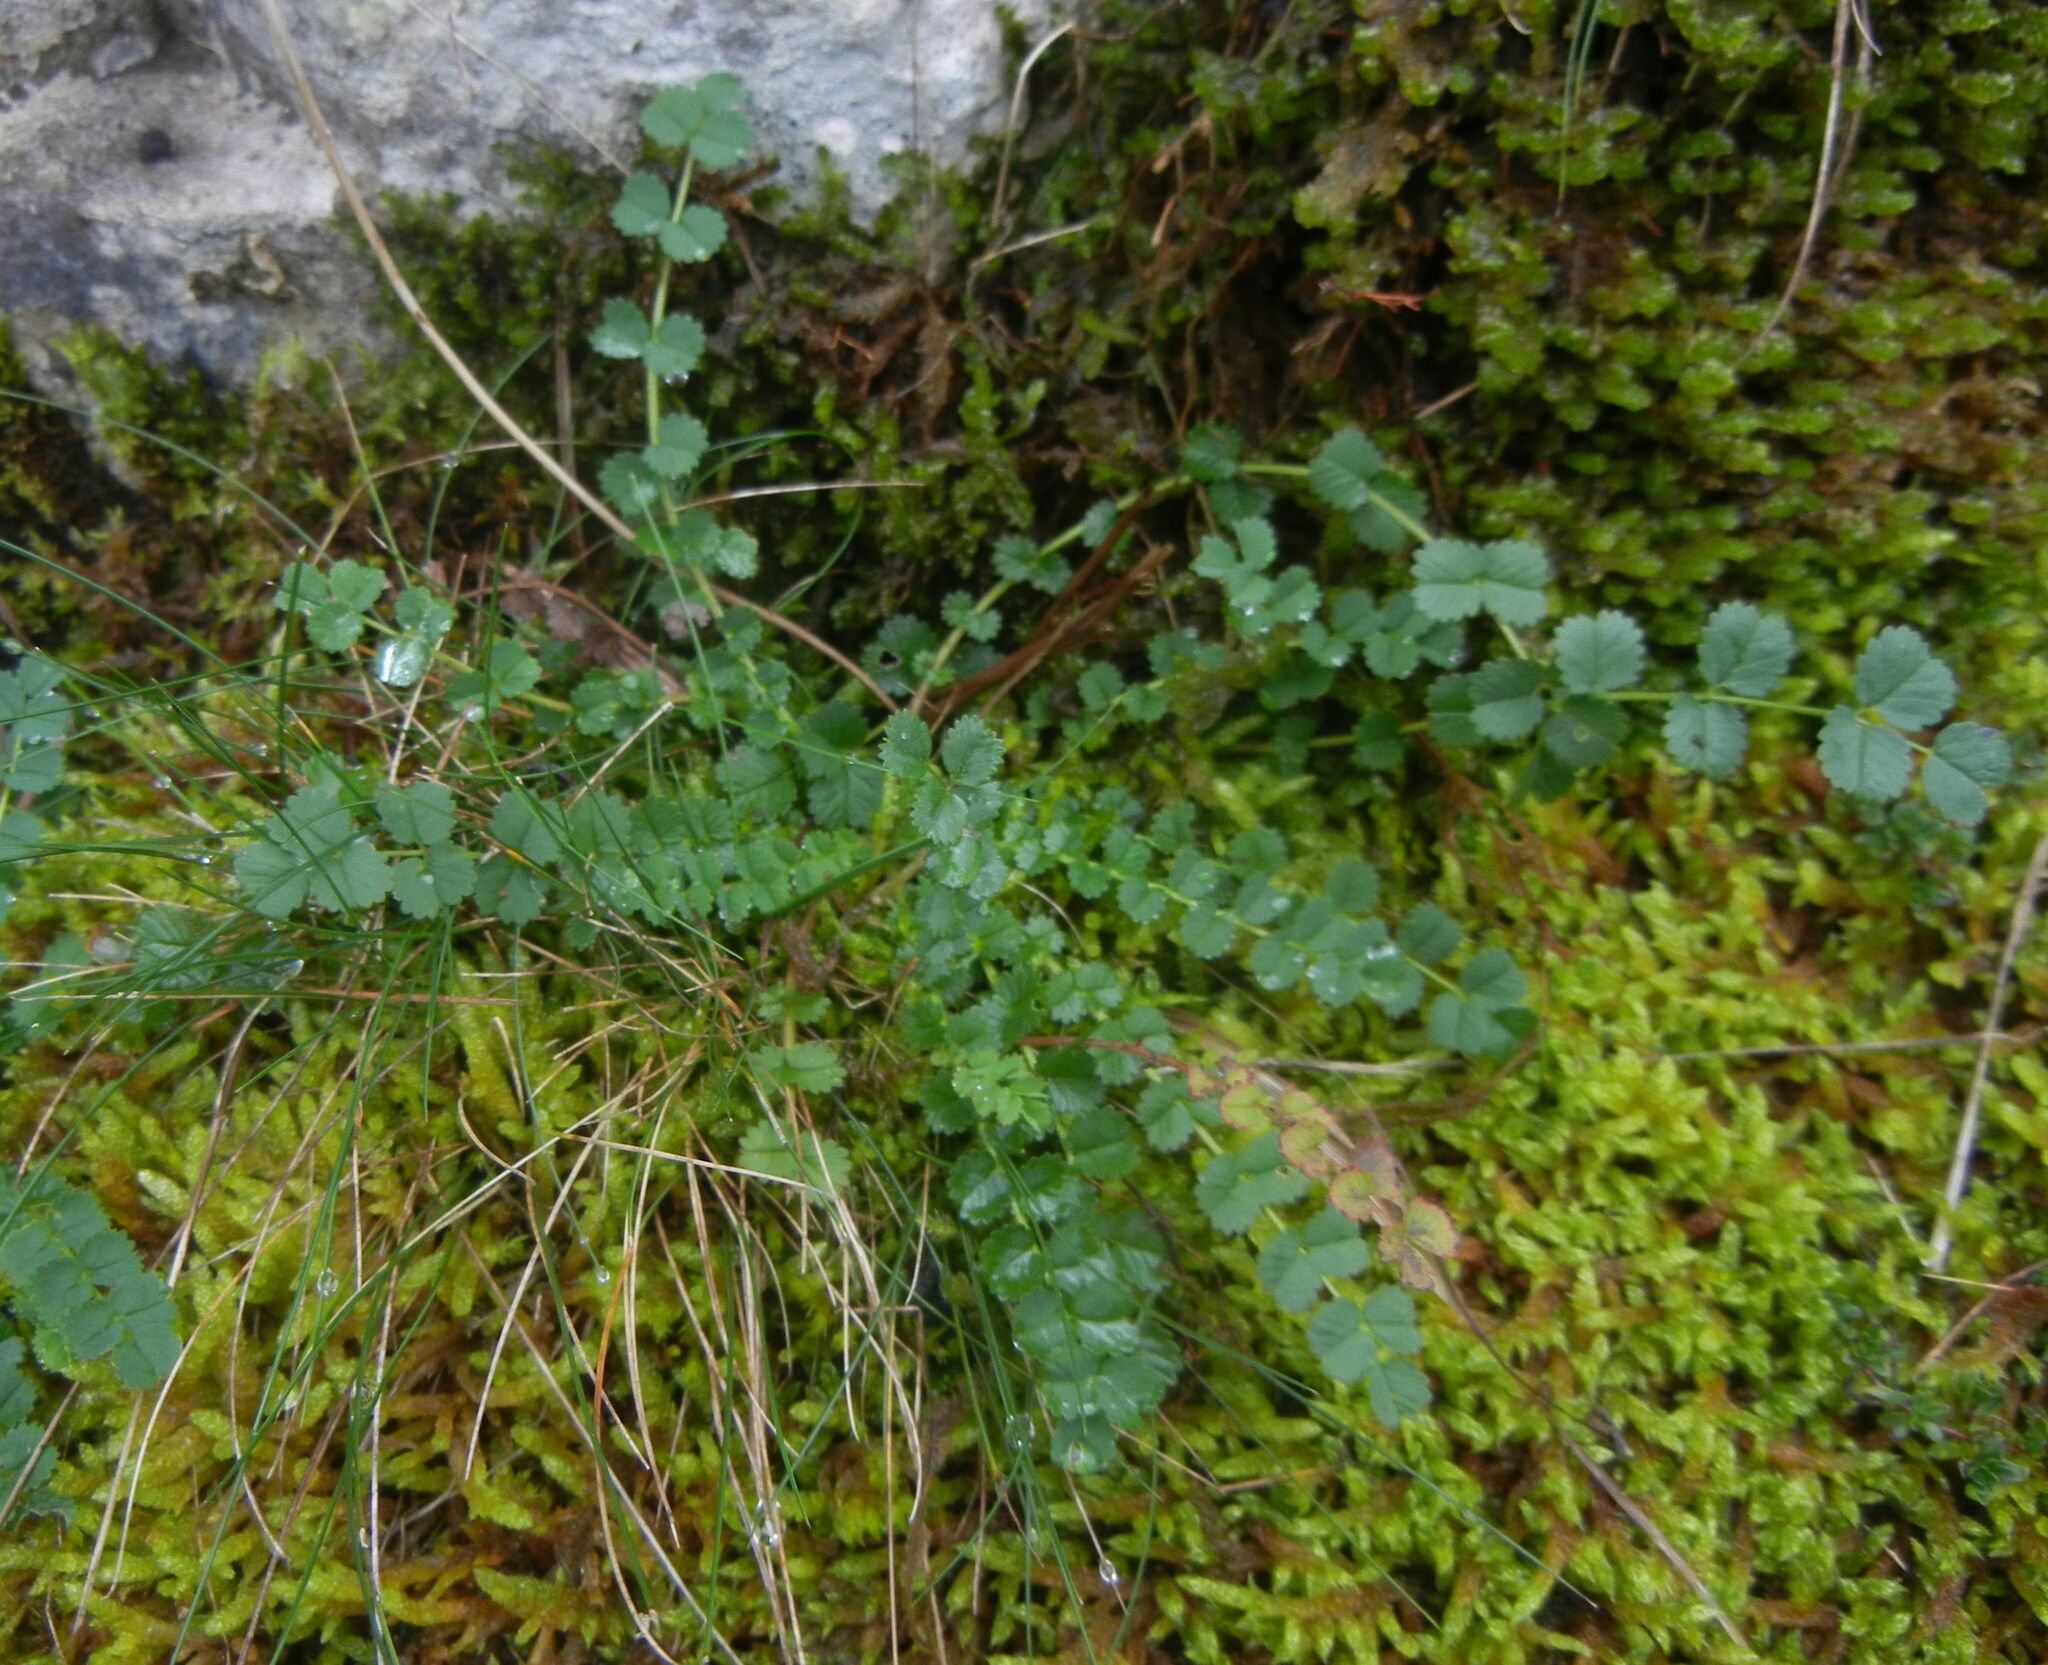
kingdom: Plantae
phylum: Tracheophyta
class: Magnoliopsida
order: Rosales
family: Rosaceae
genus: Poterium
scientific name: Poterium sanguisorba
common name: Salad burnet
